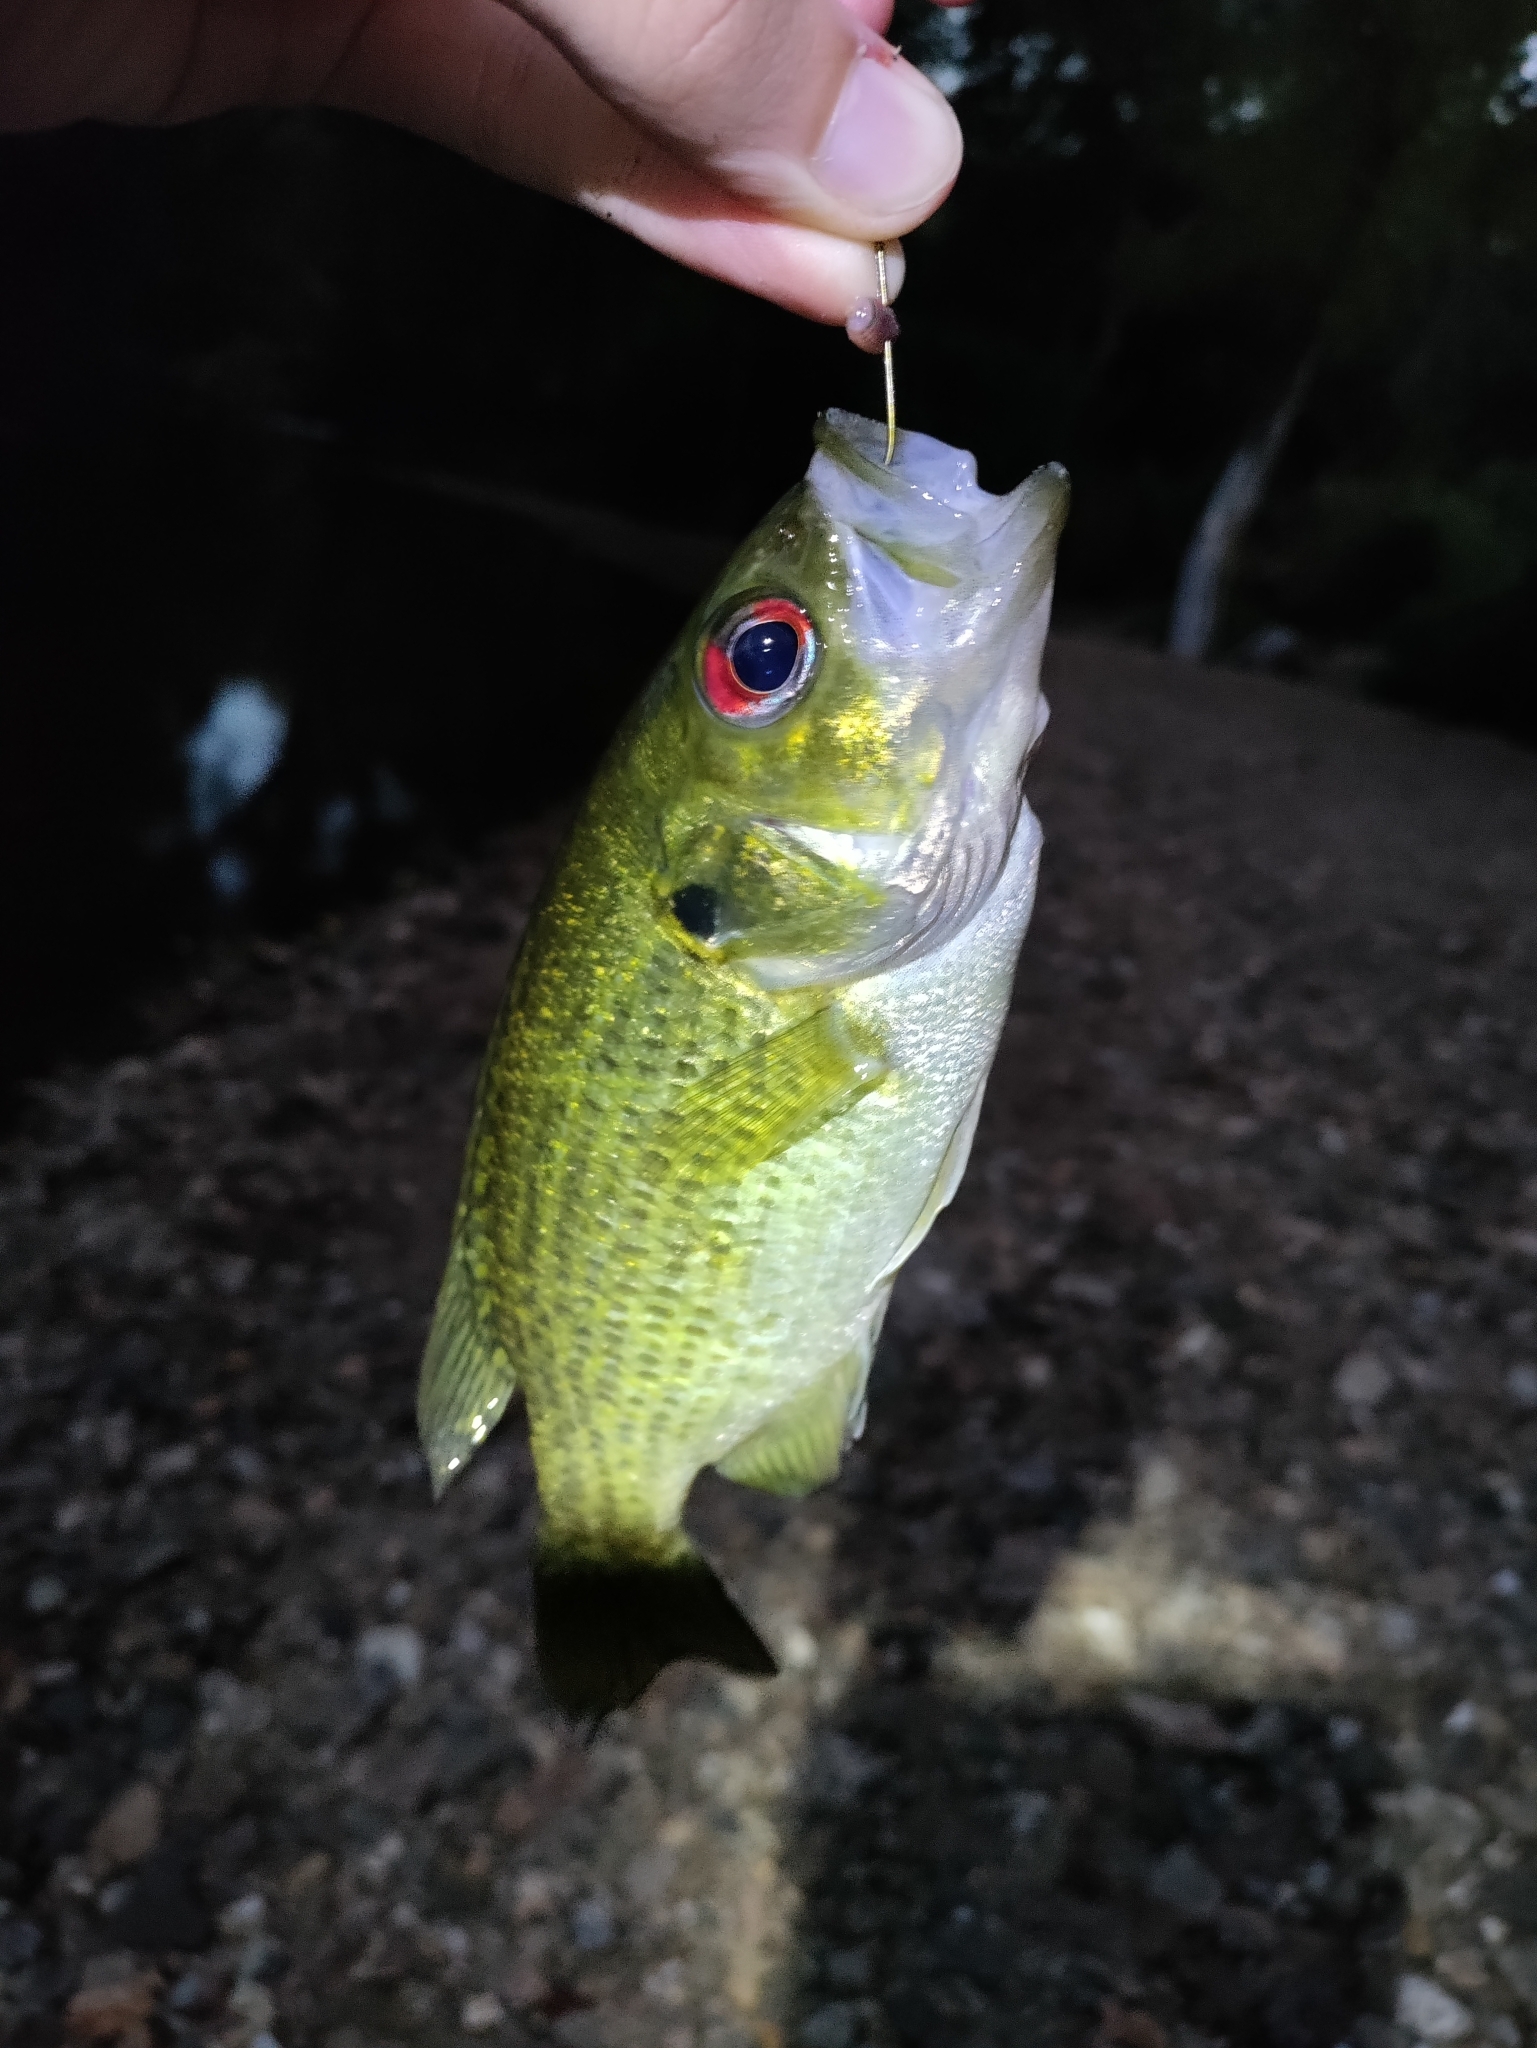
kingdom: Animalia
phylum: Chordata
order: Perciformes
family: Centrarchidae
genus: Ambloplites
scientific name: Ambloplites rupestris
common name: Rock bass
